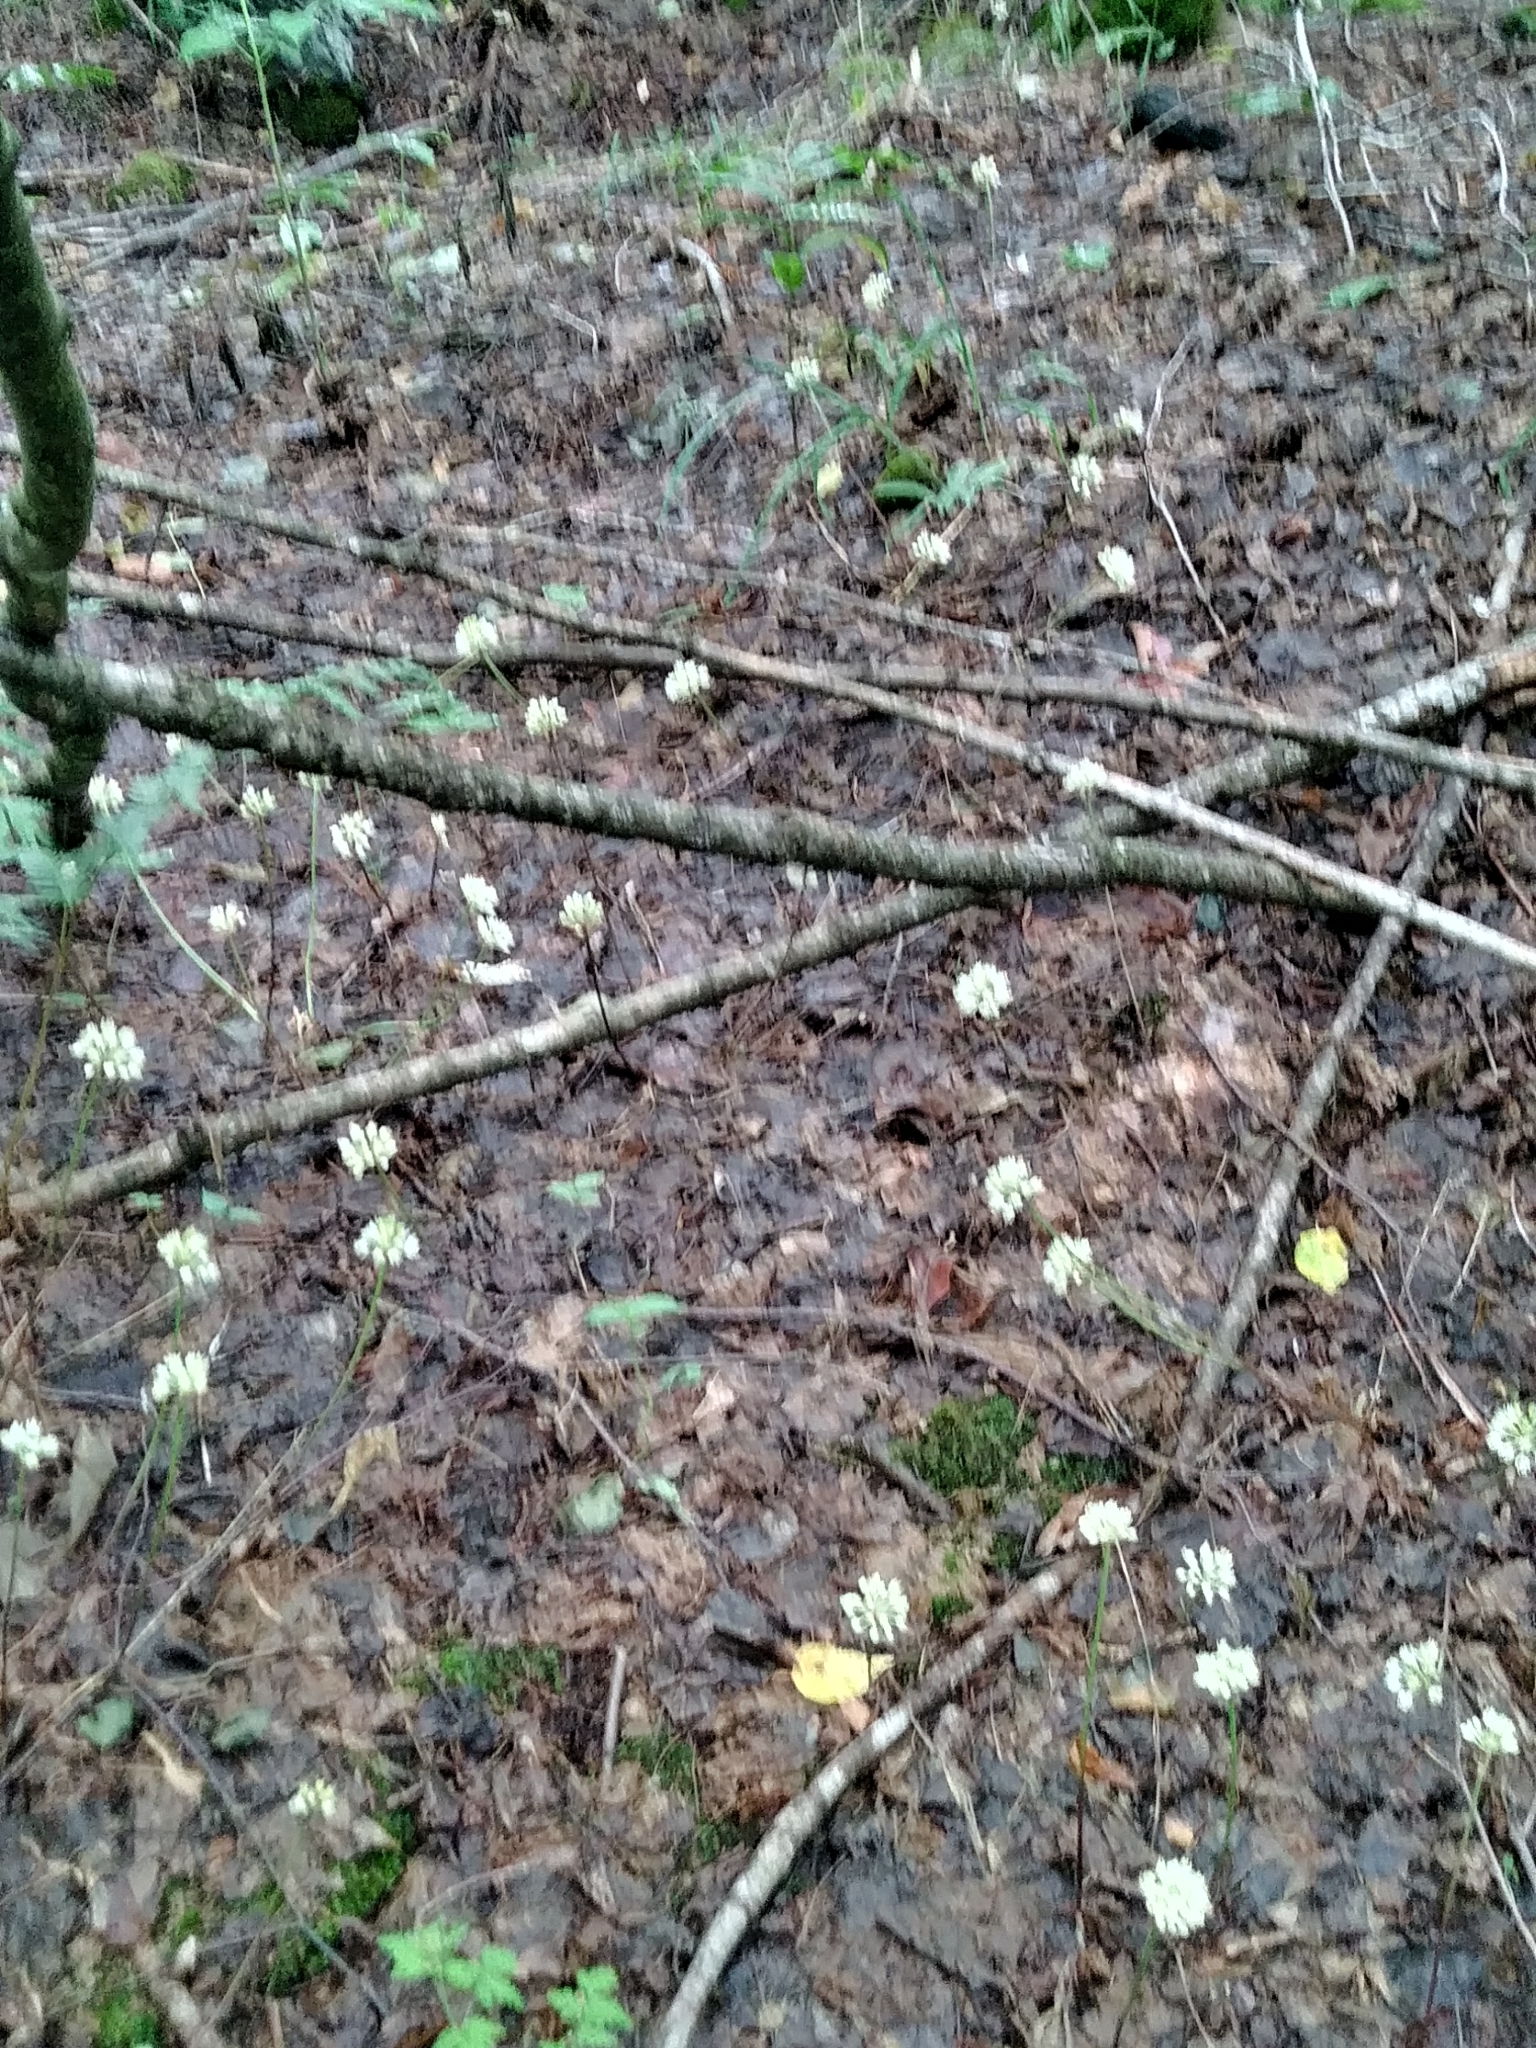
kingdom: Plantae
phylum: Tracheophyta
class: Liliopsida
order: Asparagales
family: Amaryllidaceae
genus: Allium
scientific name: Allium tricoccum
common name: Ramp
